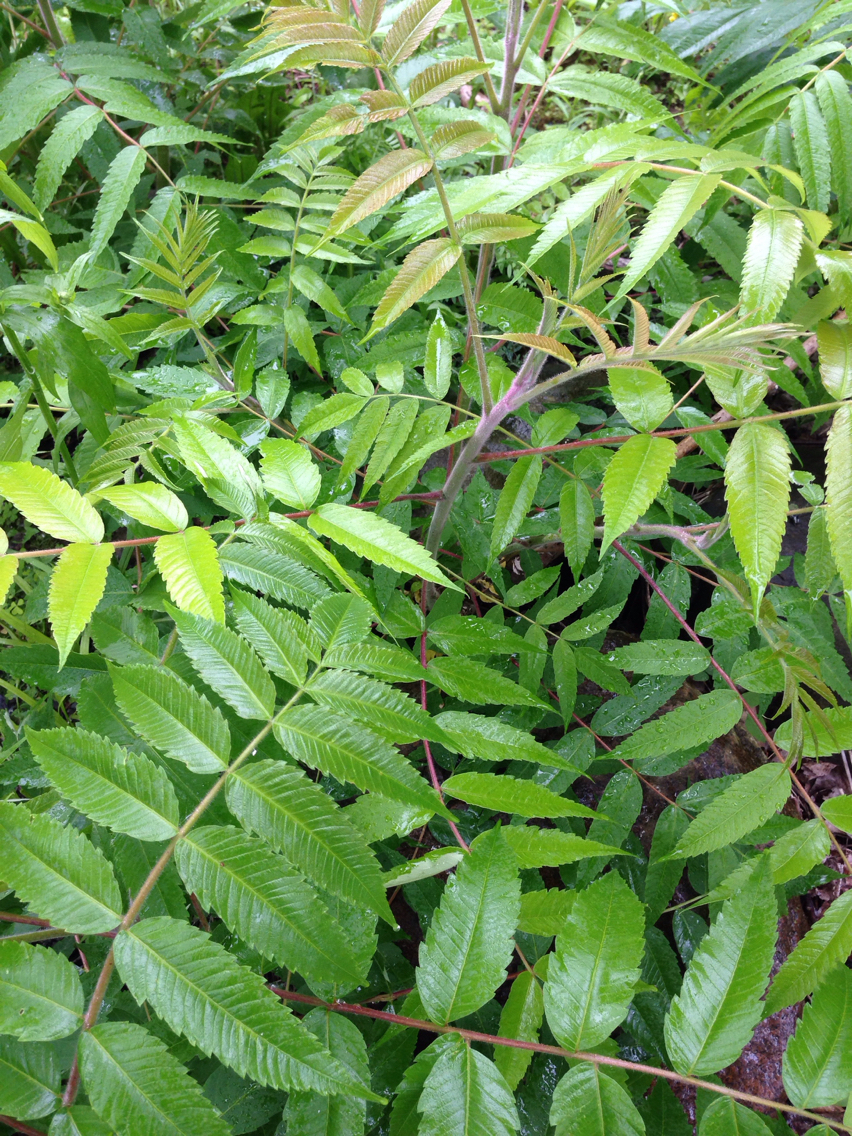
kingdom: Plantae
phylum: Tracheophyta
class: Magnoliopsida
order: Sapindales
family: Anacardiaceae
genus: Rhus
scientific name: Rhus typhina
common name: Staghorn sumac
